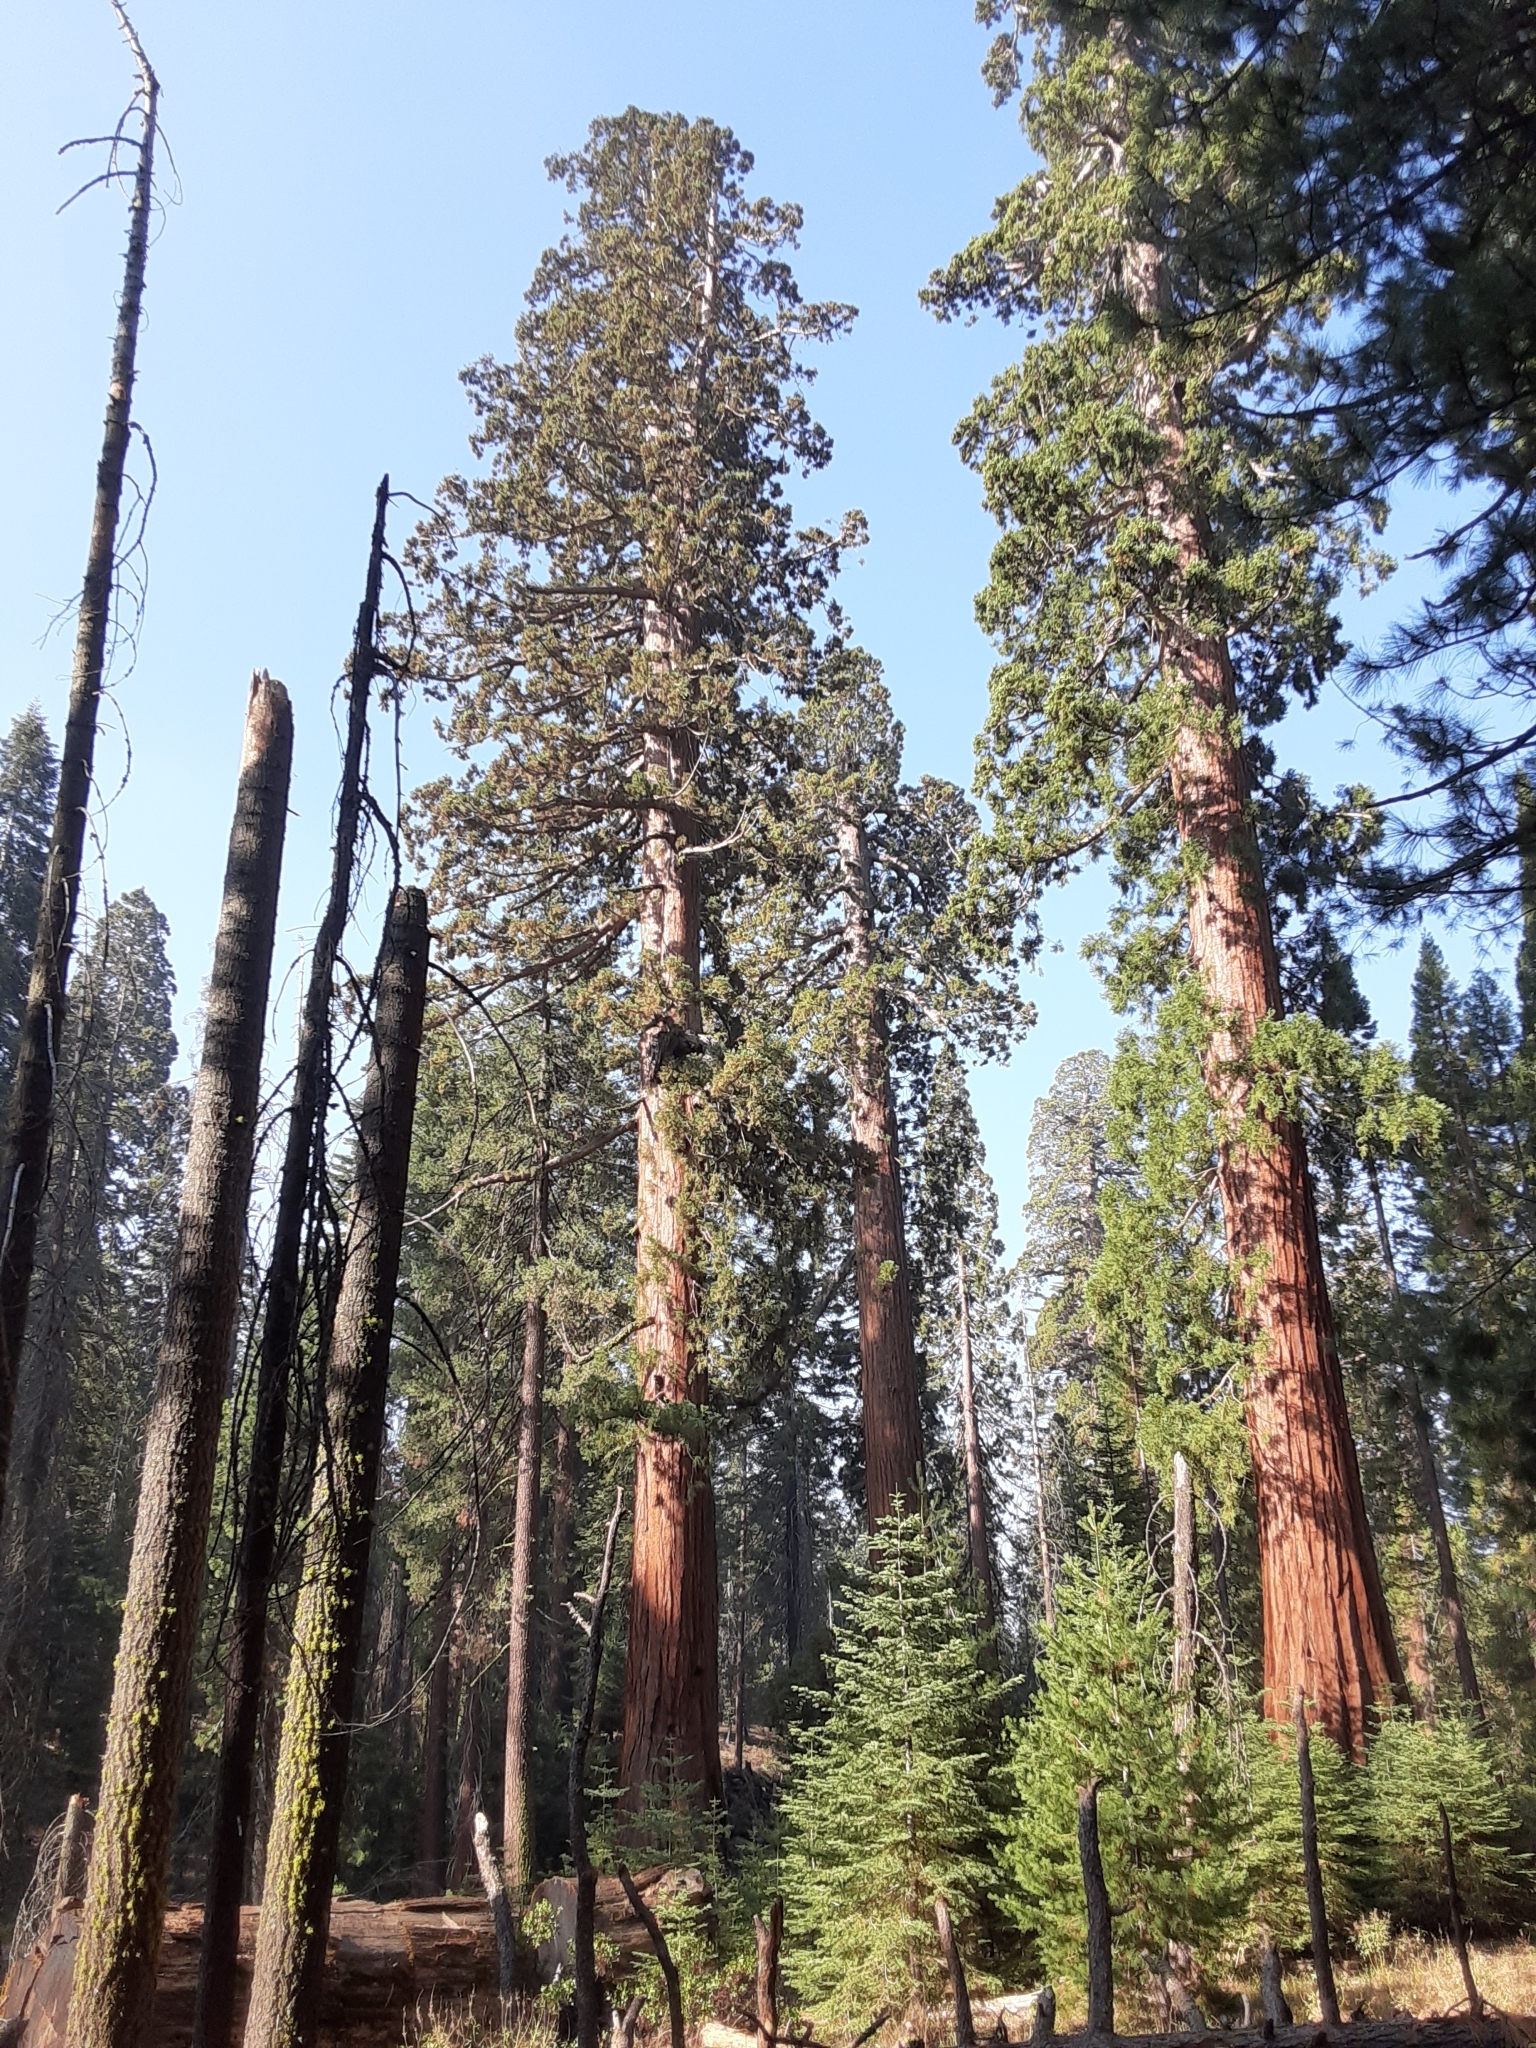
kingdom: Plantae
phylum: Tracheophyta
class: Pinopsida
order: Pinales
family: Cupressaceae
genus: Sequoiadendron
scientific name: Sequoiadendron giganteum
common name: Wellingtonia
